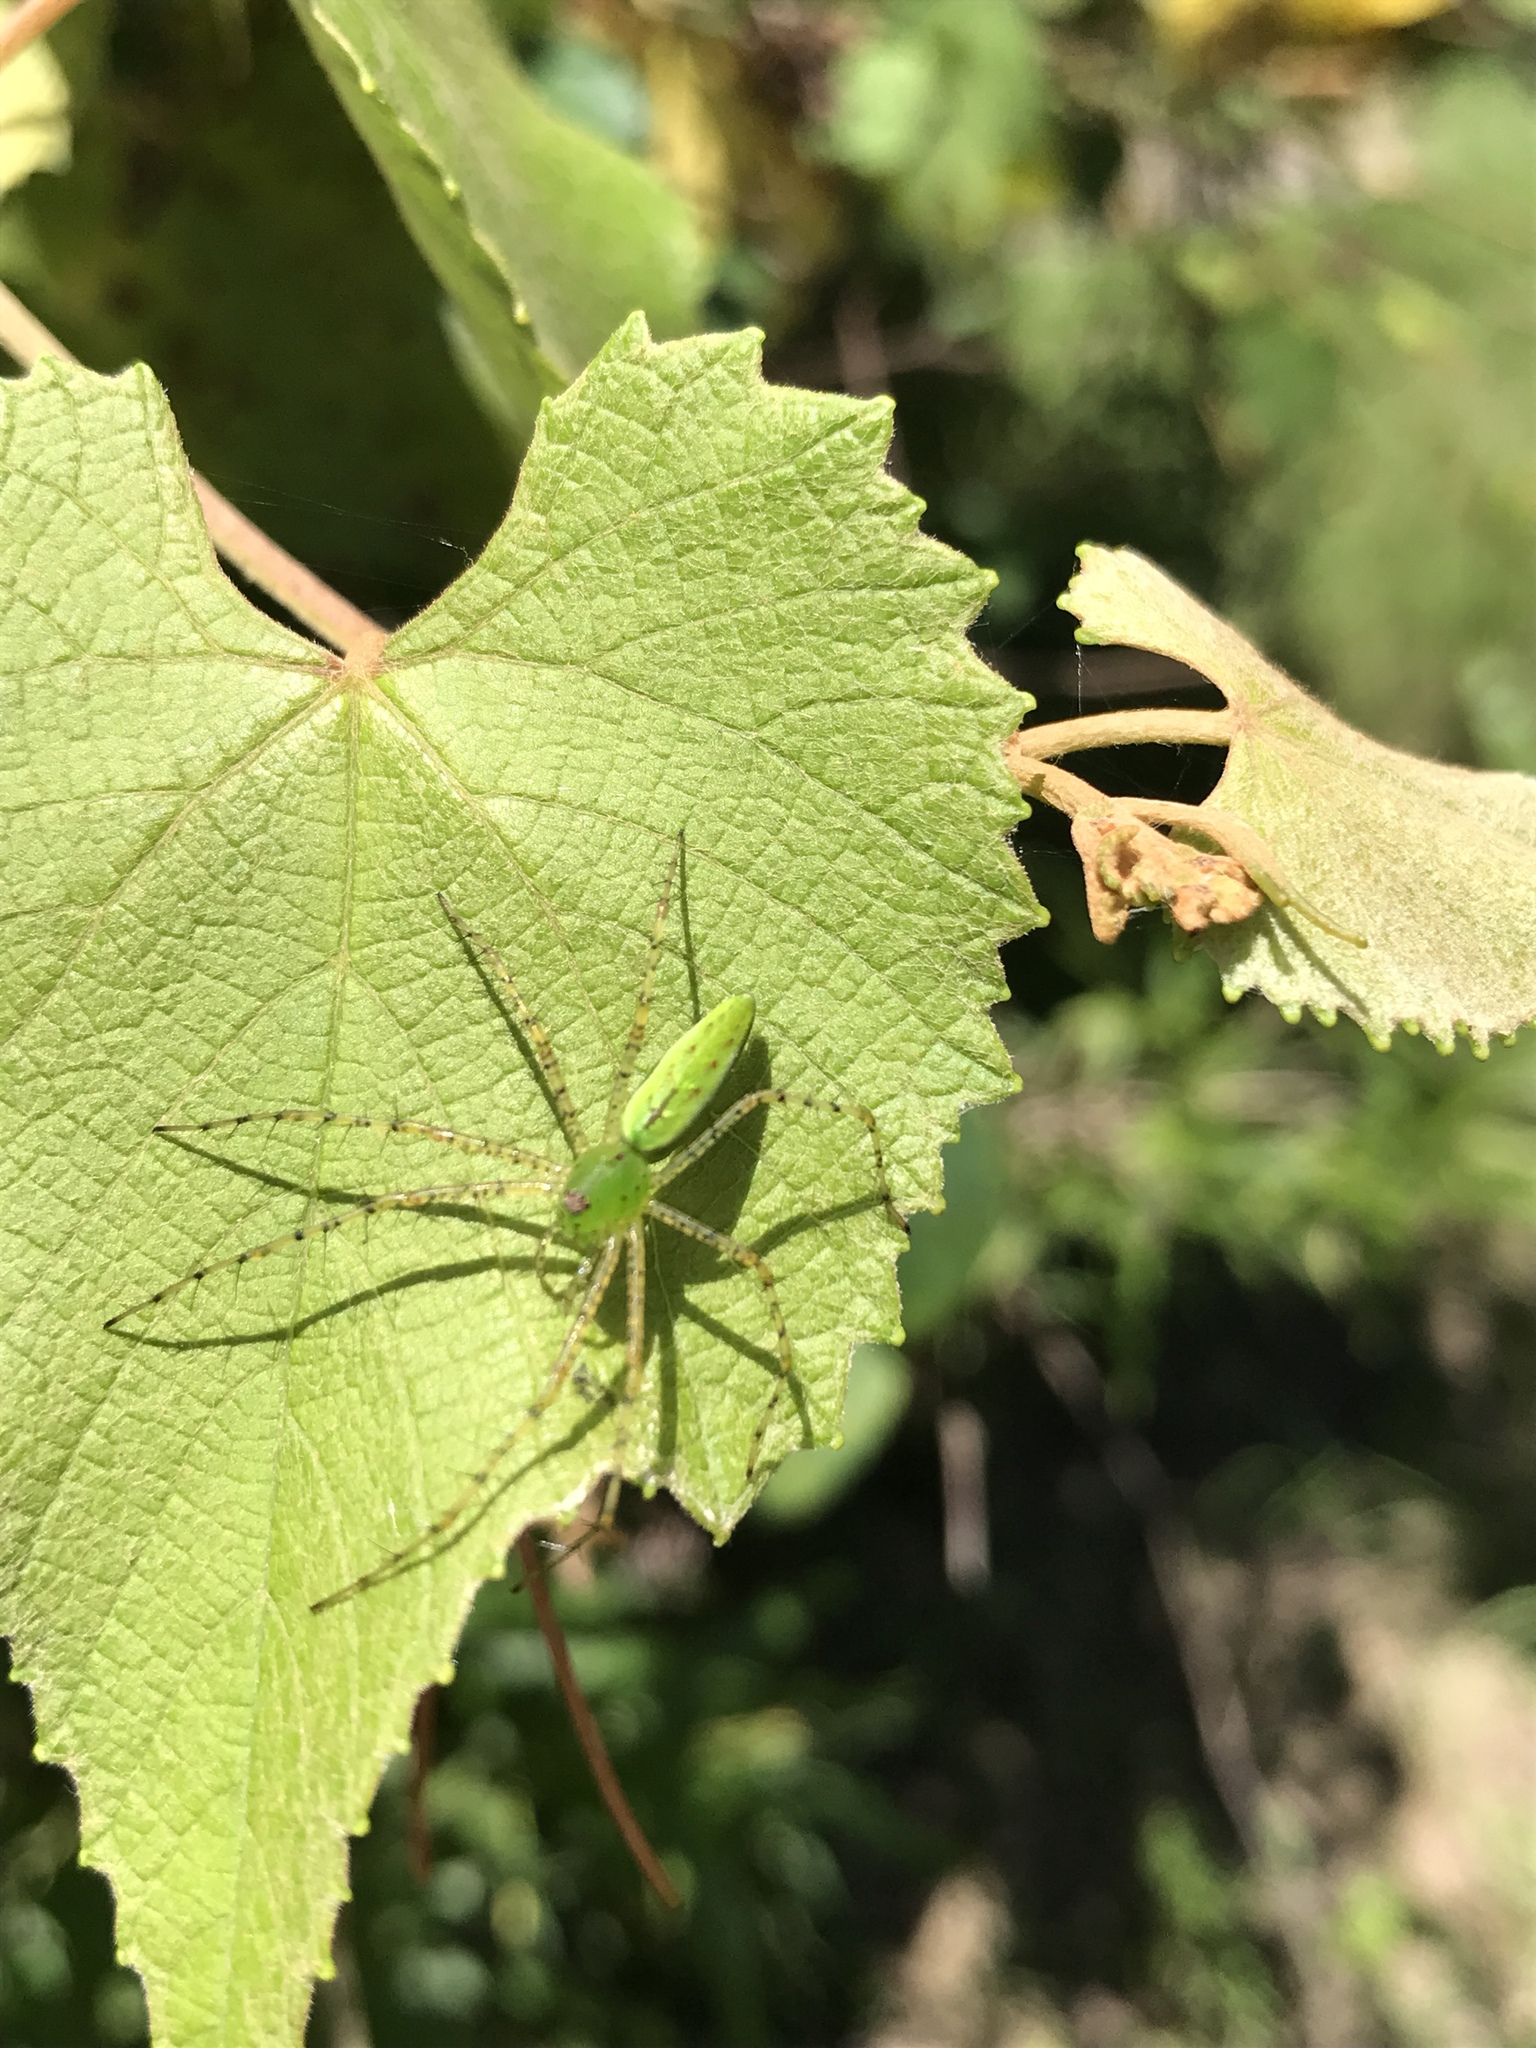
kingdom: Animalia
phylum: Arthropoda
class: Arachnida
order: Araneae
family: Oxyopidae
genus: Peucetia
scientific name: Peucetia viridans
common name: Lynx spiders
